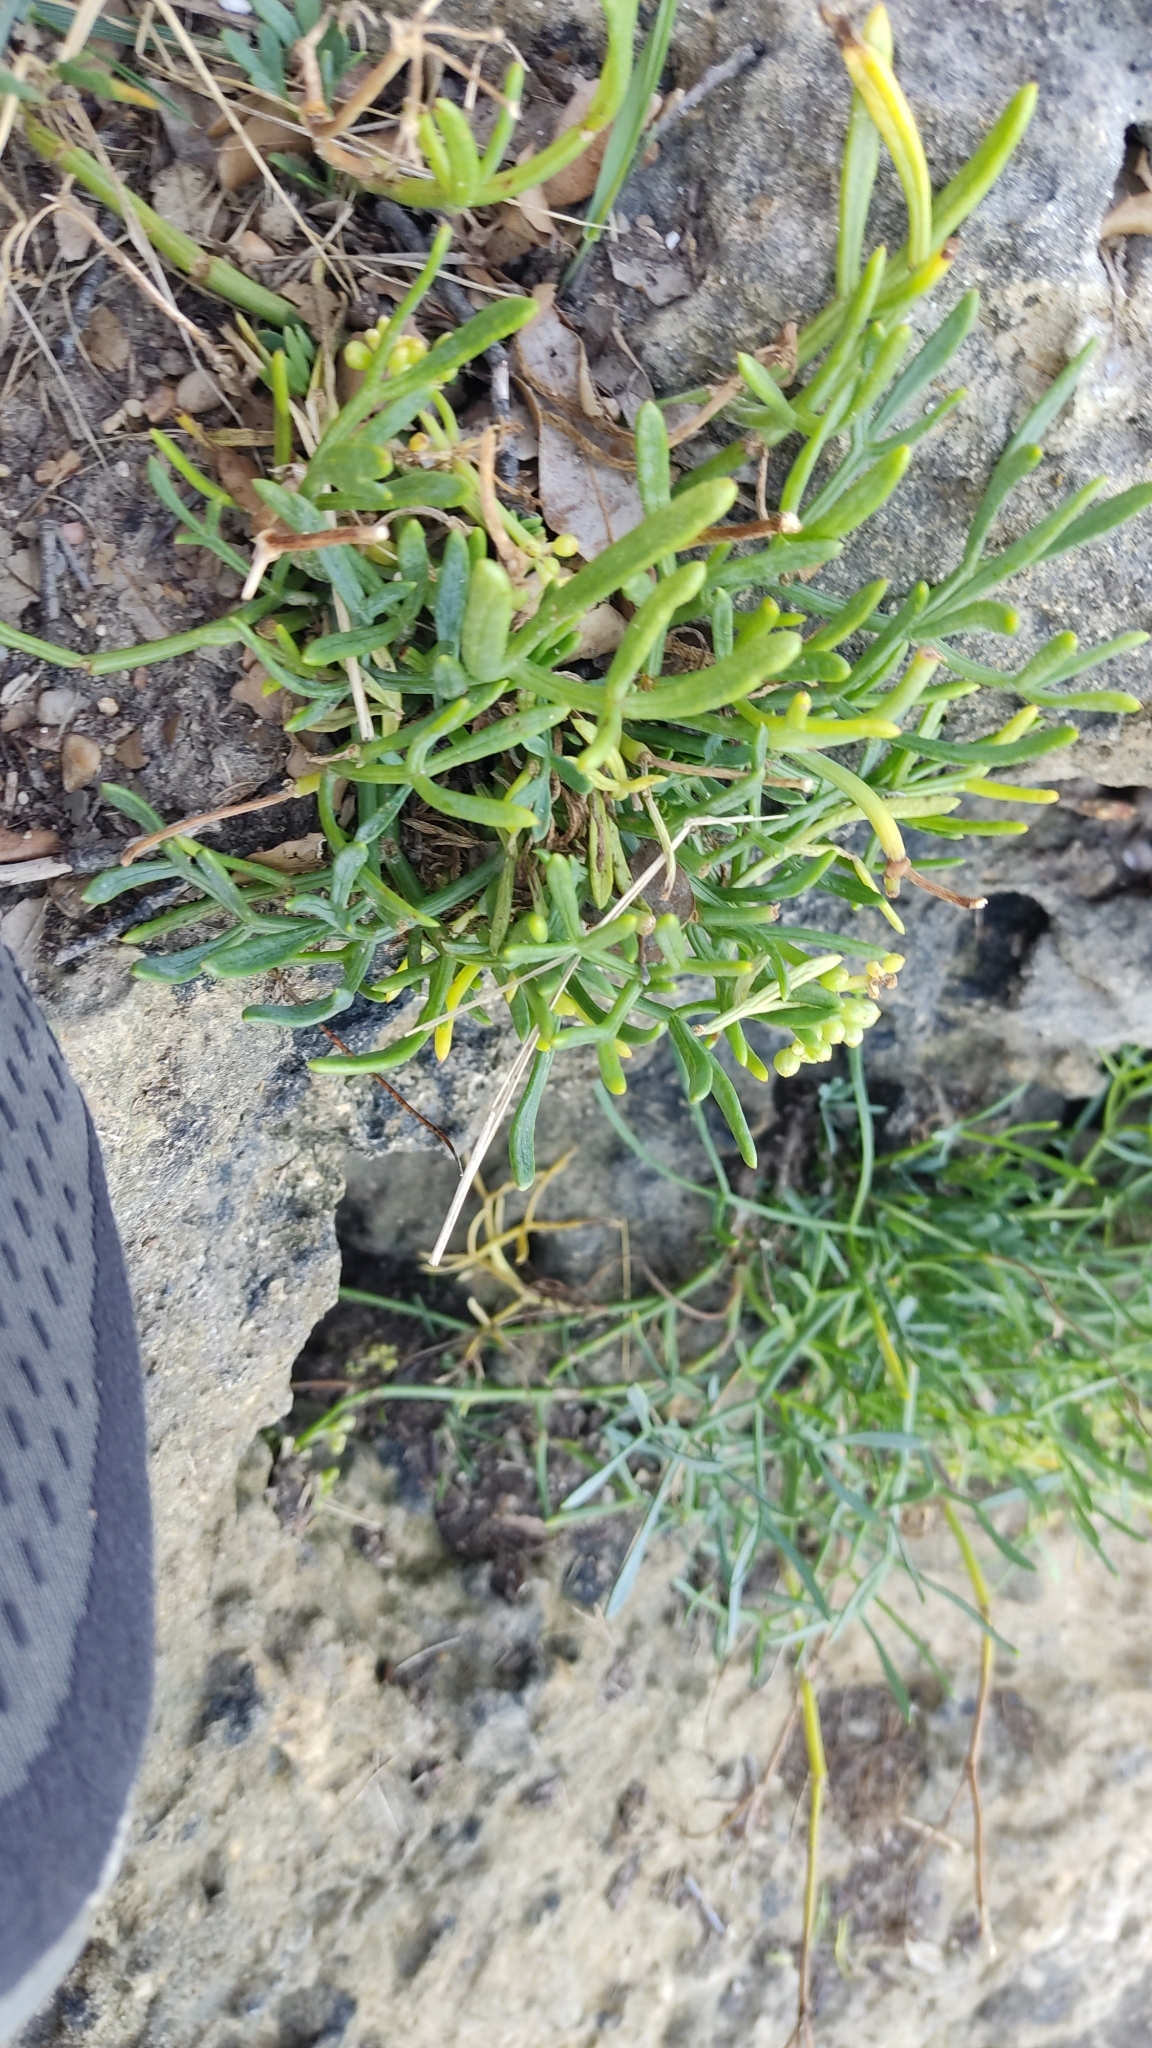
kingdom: Plantae
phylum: Tracheophyta
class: Magnoliopsida
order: Apiales
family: Apiaceae
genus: Crithmum
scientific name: Crithmum maritimum
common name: Rock samphire
